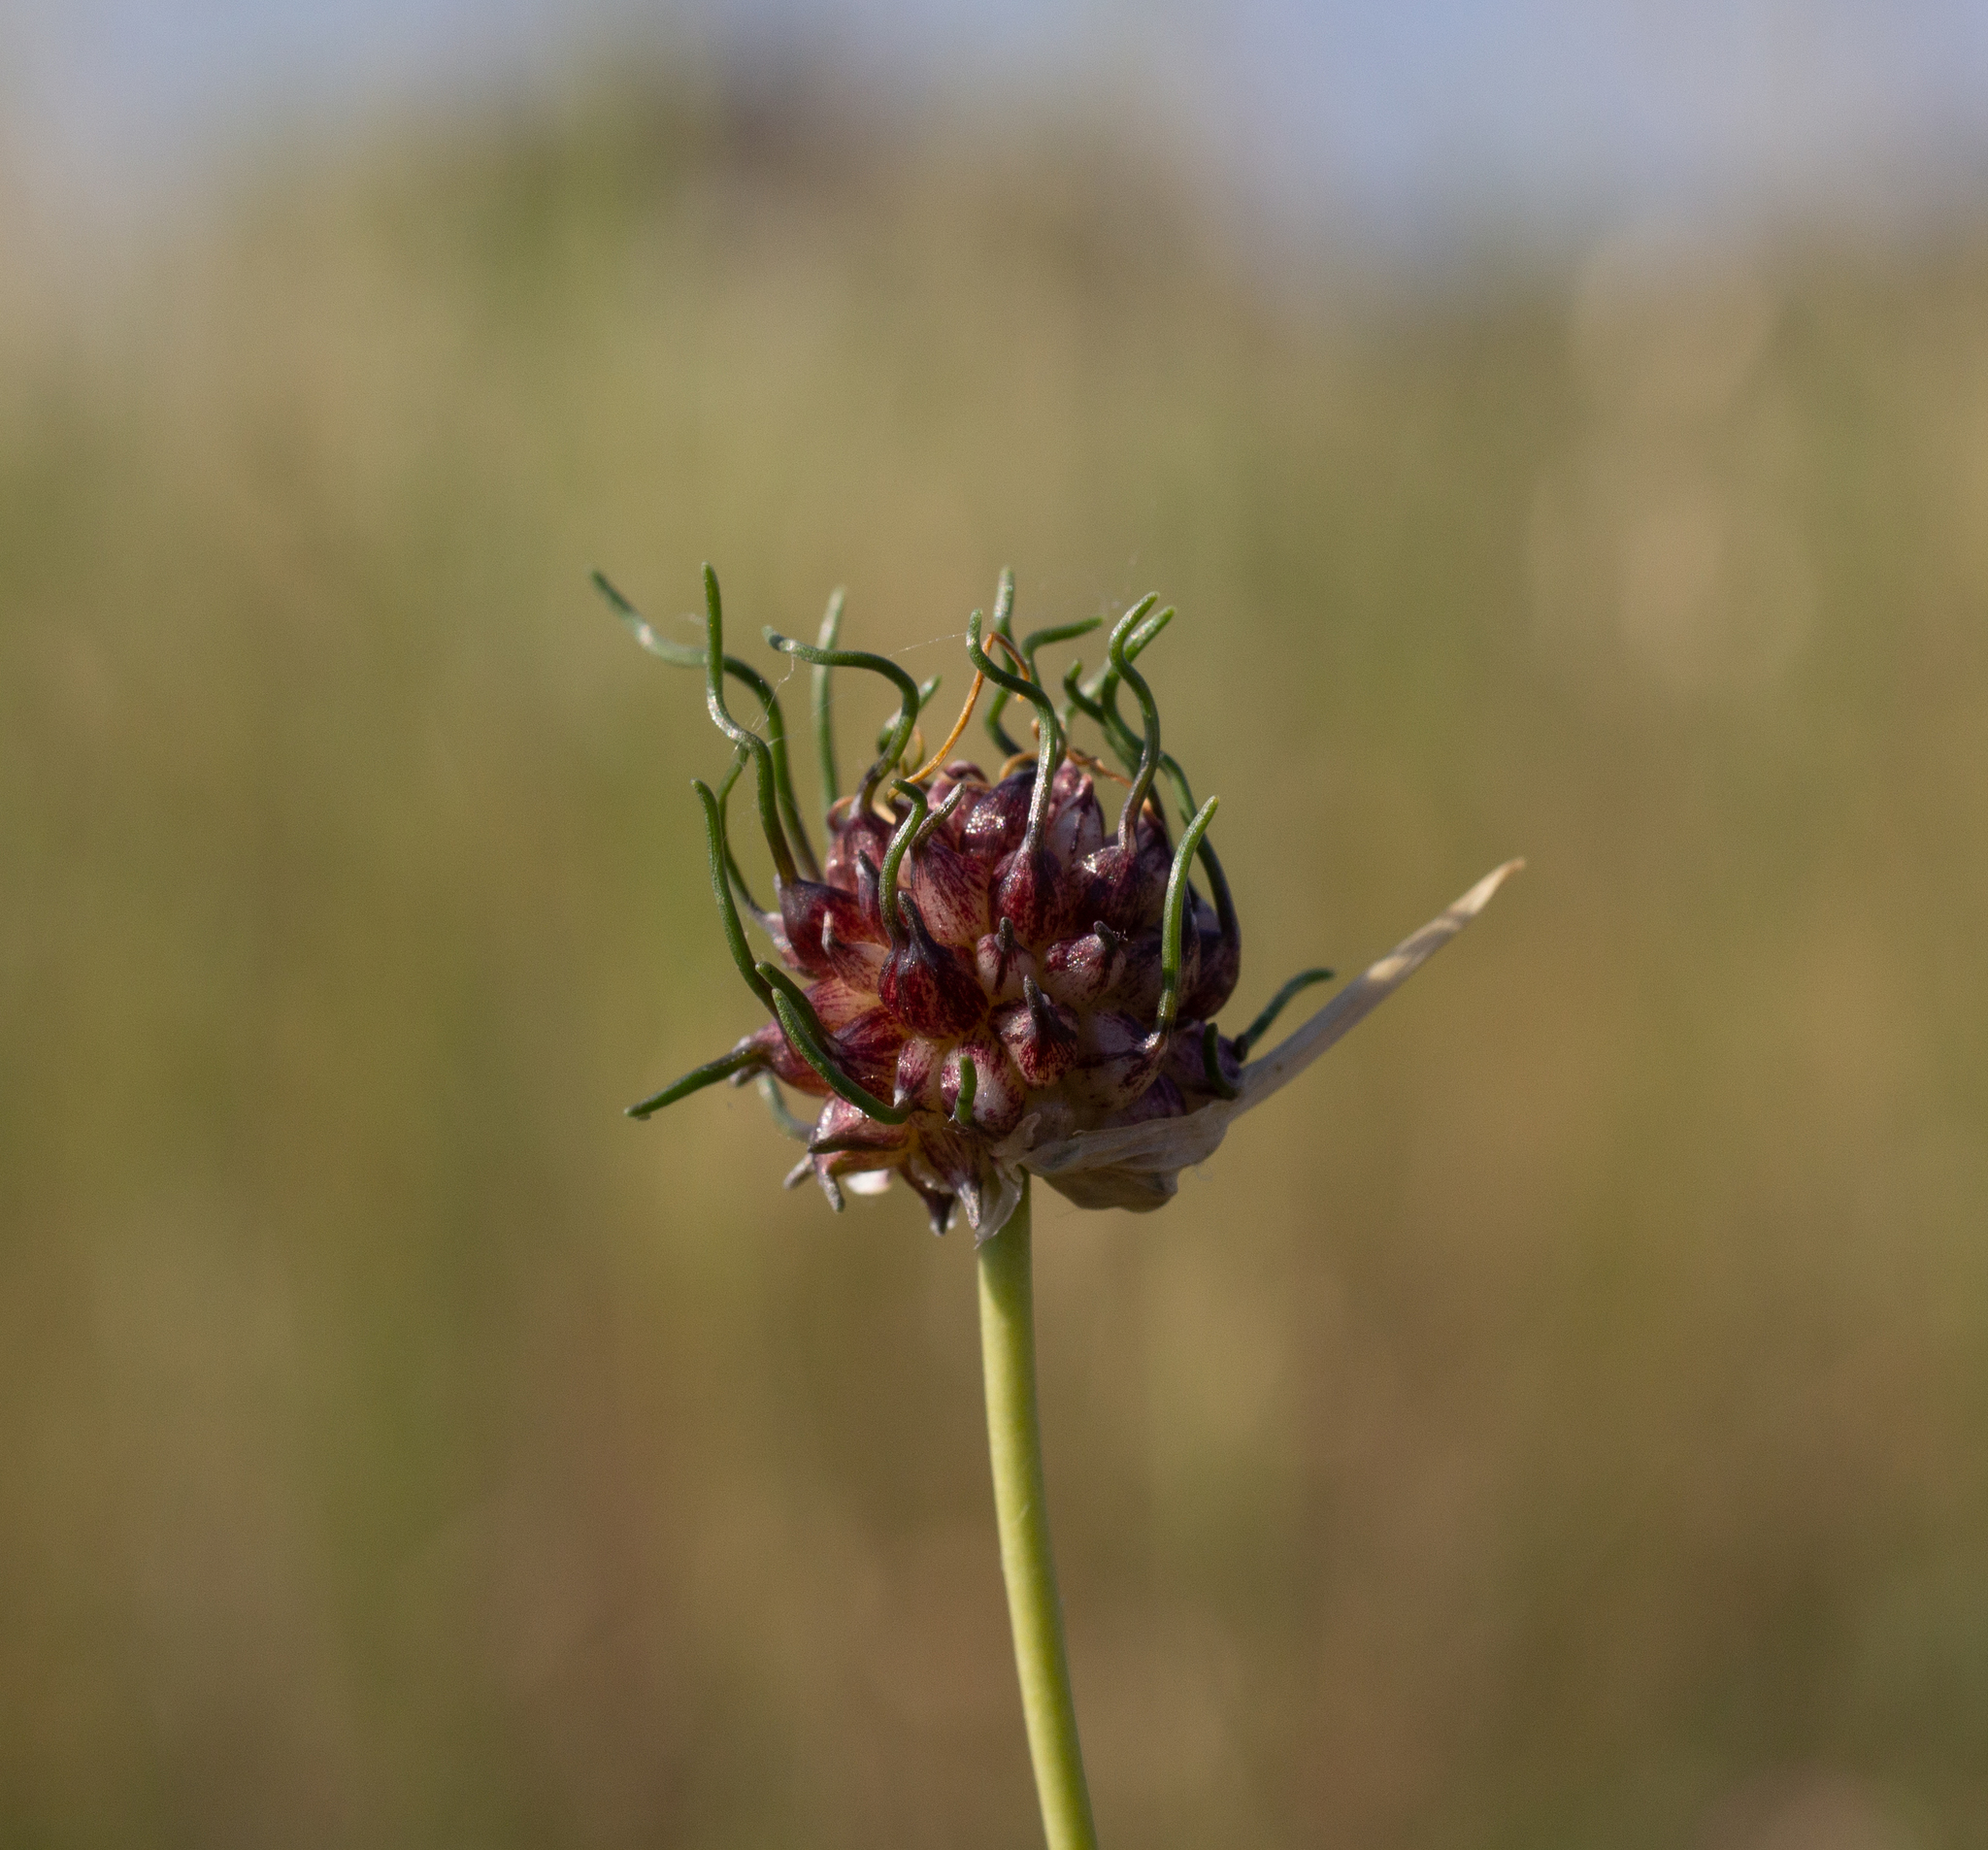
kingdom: Plantae
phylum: Tracheophyta
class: Liliopsida
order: Asparagales
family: Amaryllidaceae
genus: Allium
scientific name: Allium vineale
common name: Crow garlic
